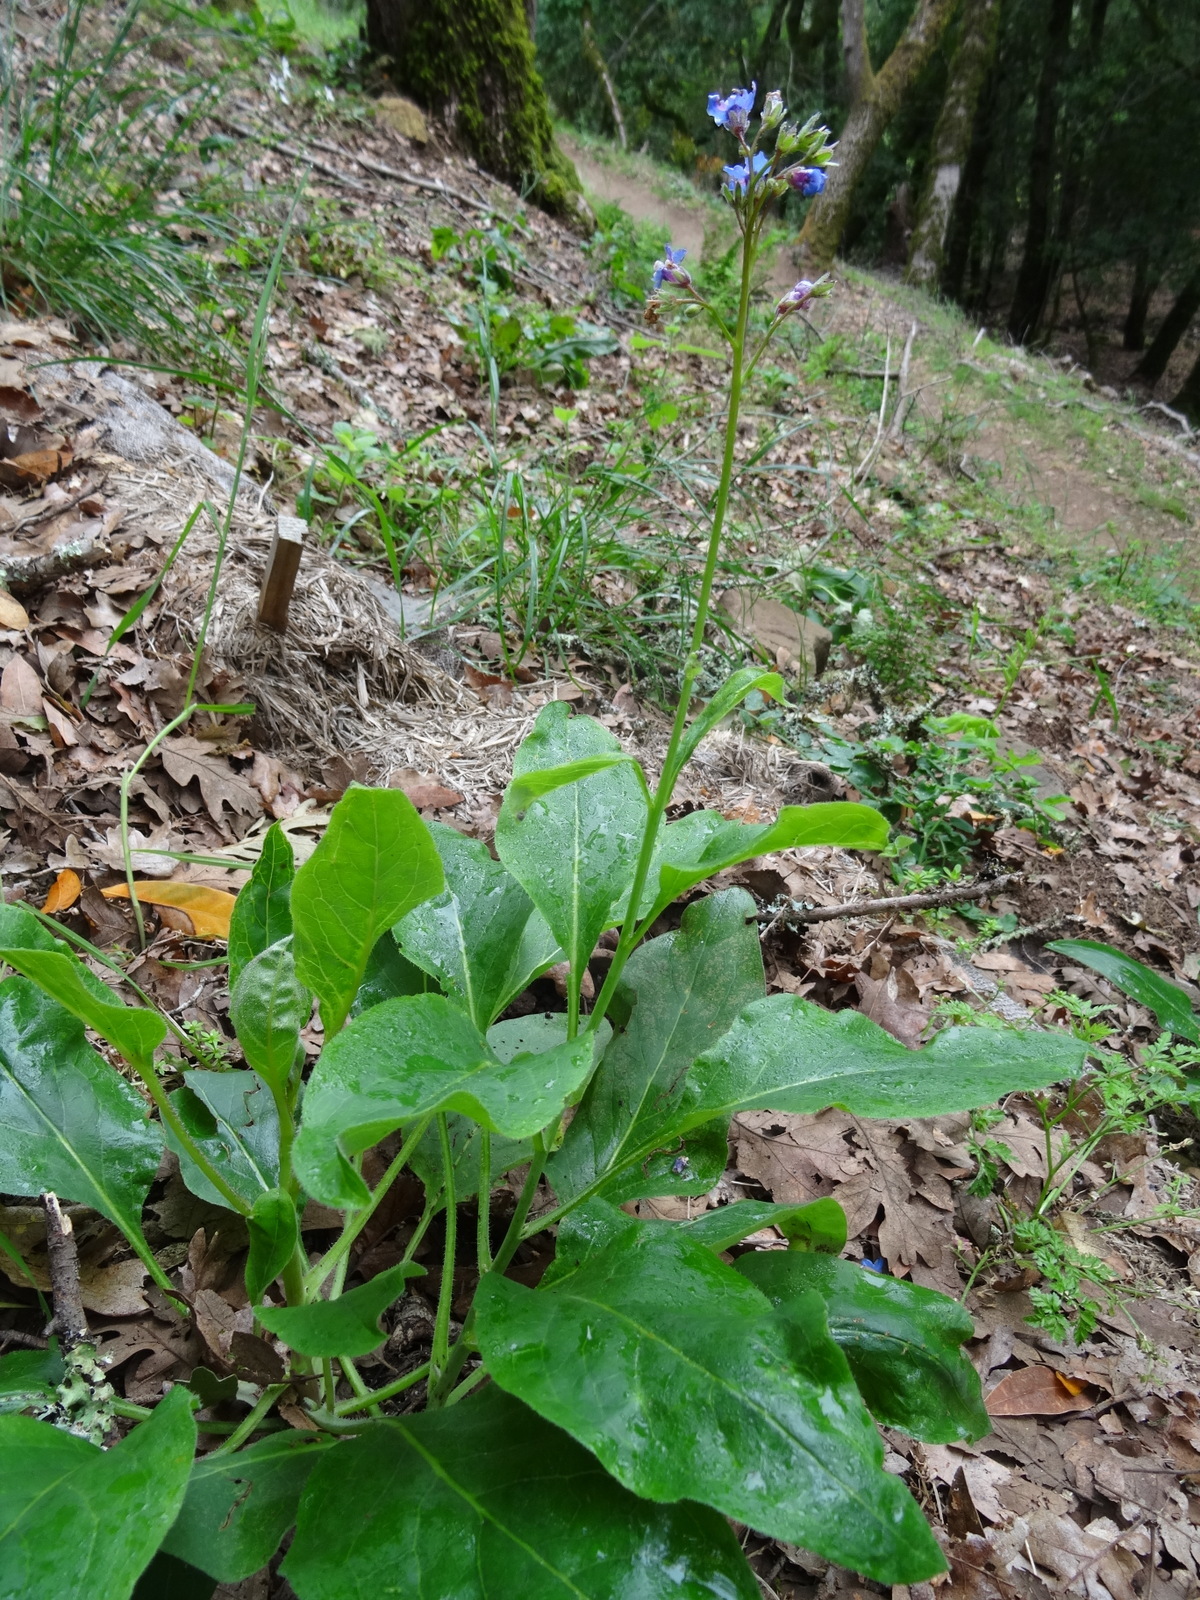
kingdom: Plantae
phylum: Tracheophyta
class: Magnoliopsida
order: Boraginales
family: Boraginaceae
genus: Adelinia
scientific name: Adelinia grande
